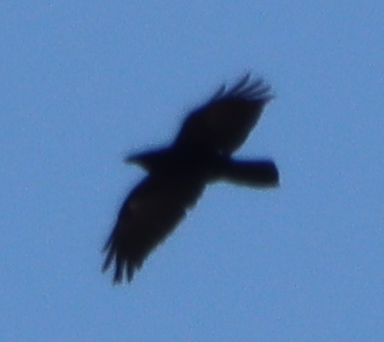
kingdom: Animalia
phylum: Chordata
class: Aves
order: Passeriformes
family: Corvidae
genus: Corvus
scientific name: Corvus corax
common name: Common raven
